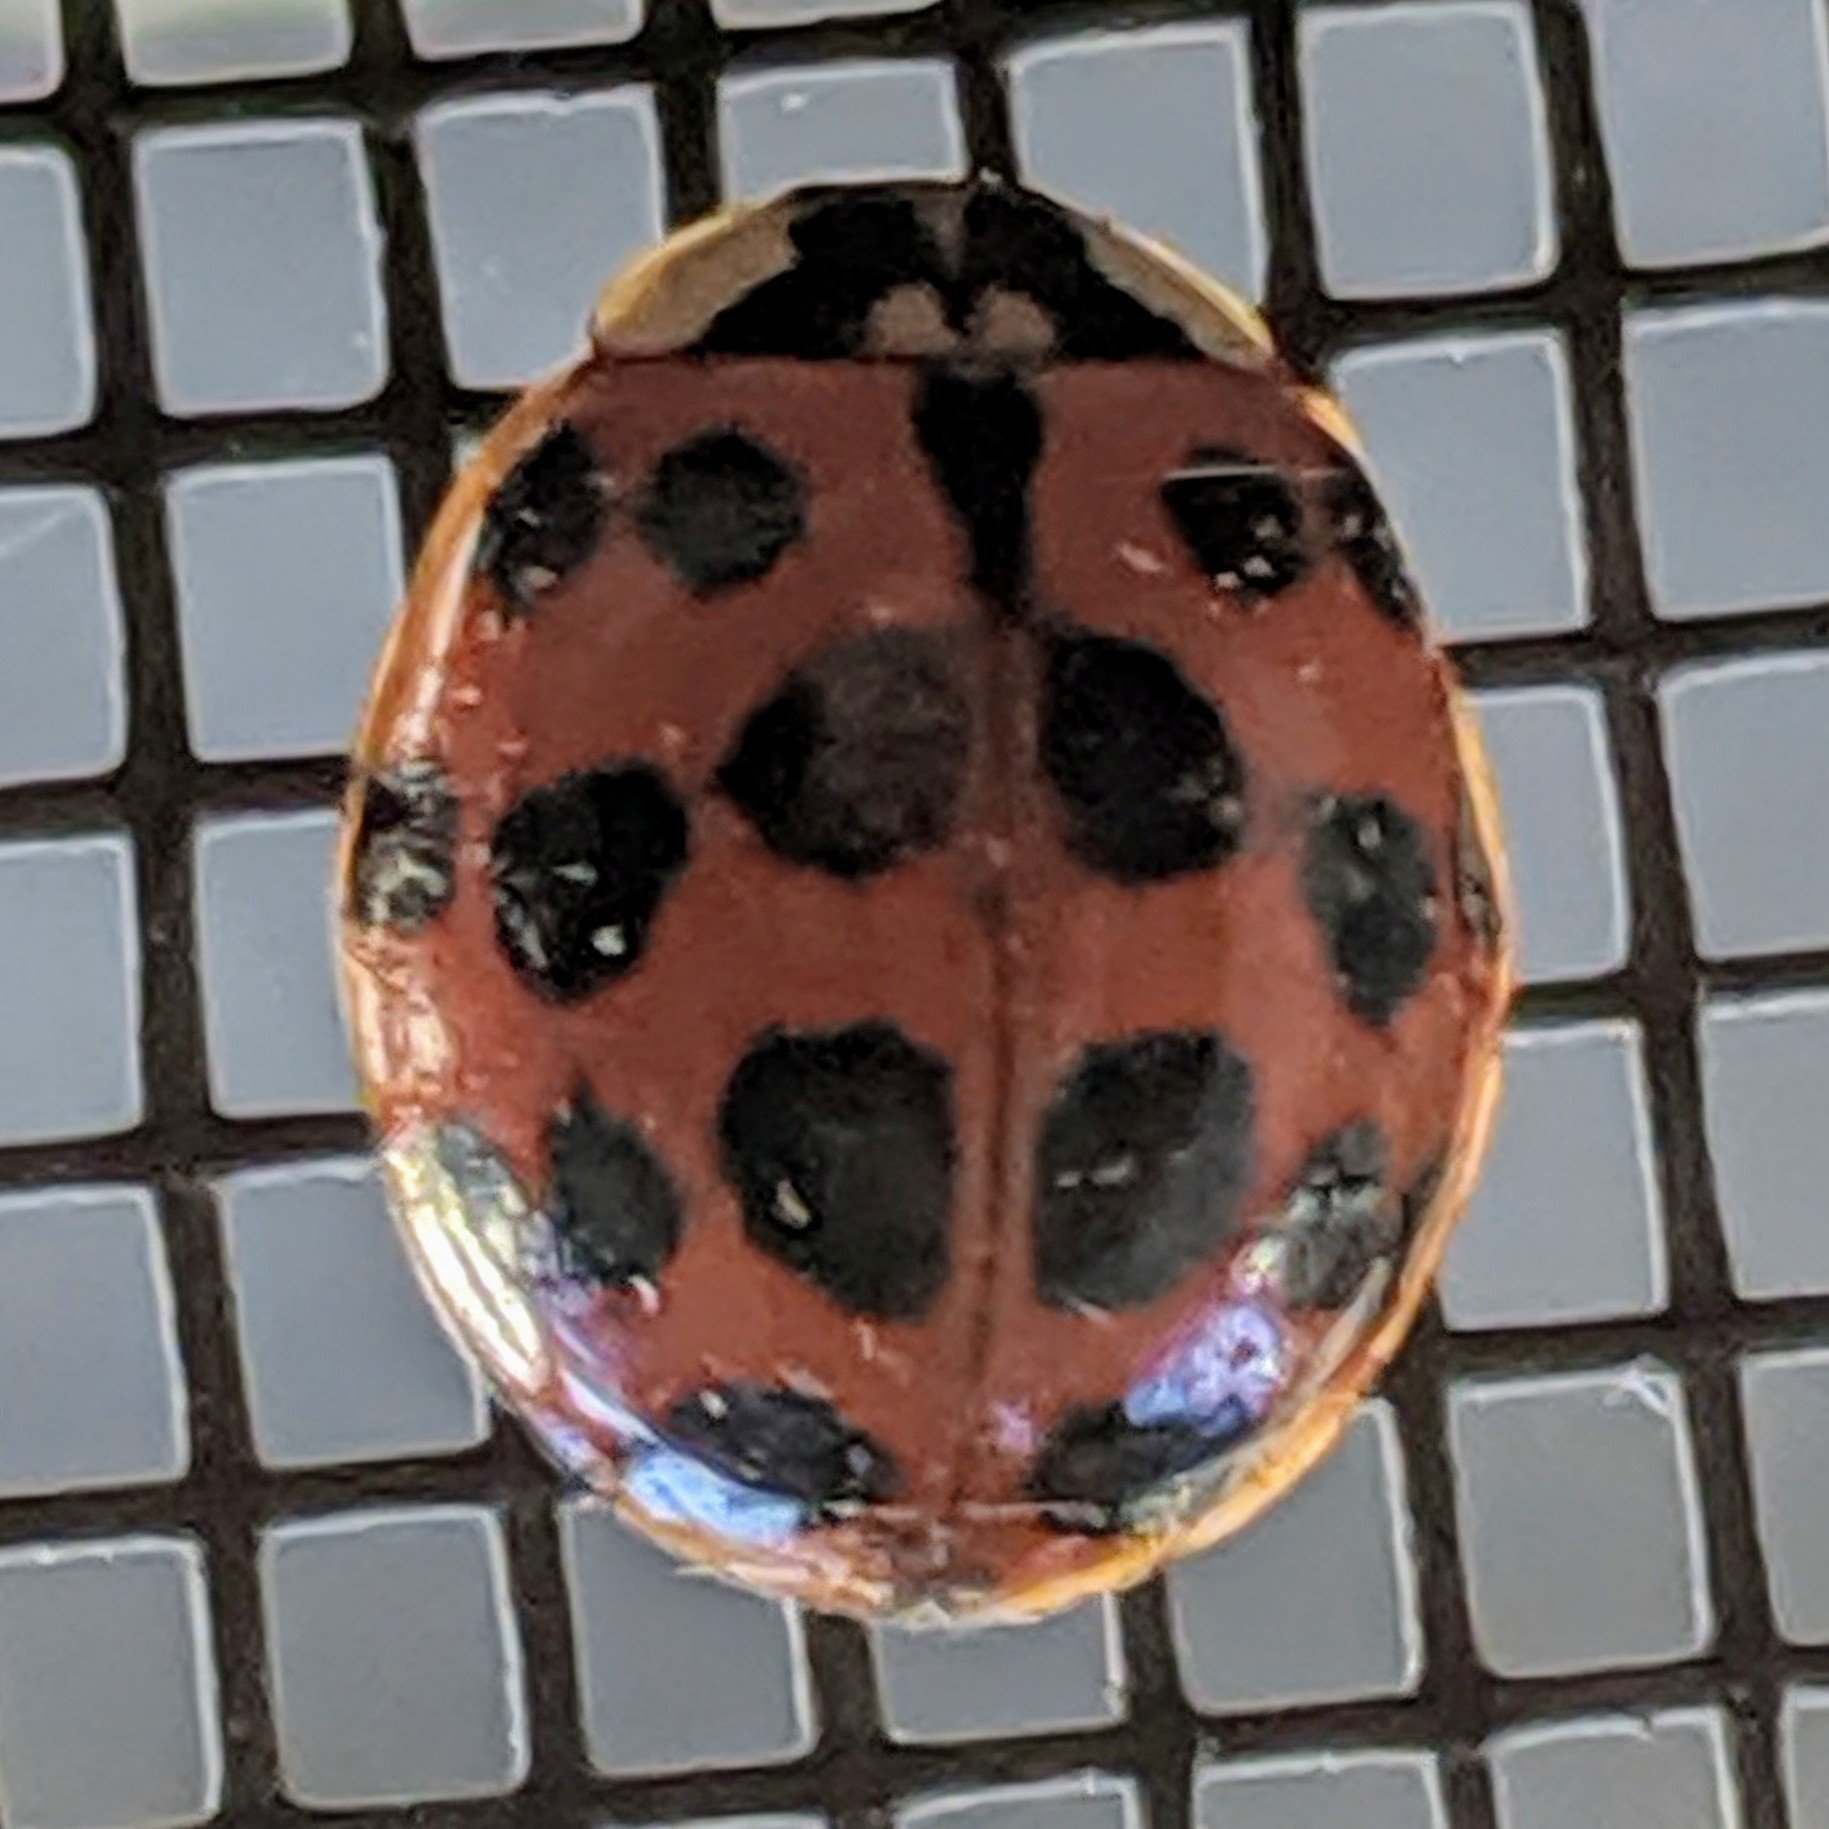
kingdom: Animalia
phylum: Arthropoda
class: Insecta
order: Coleoptera
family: Coccinellidae
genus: Harmonia
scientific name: Harmonia axyridis
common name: Harlequin ladybird
